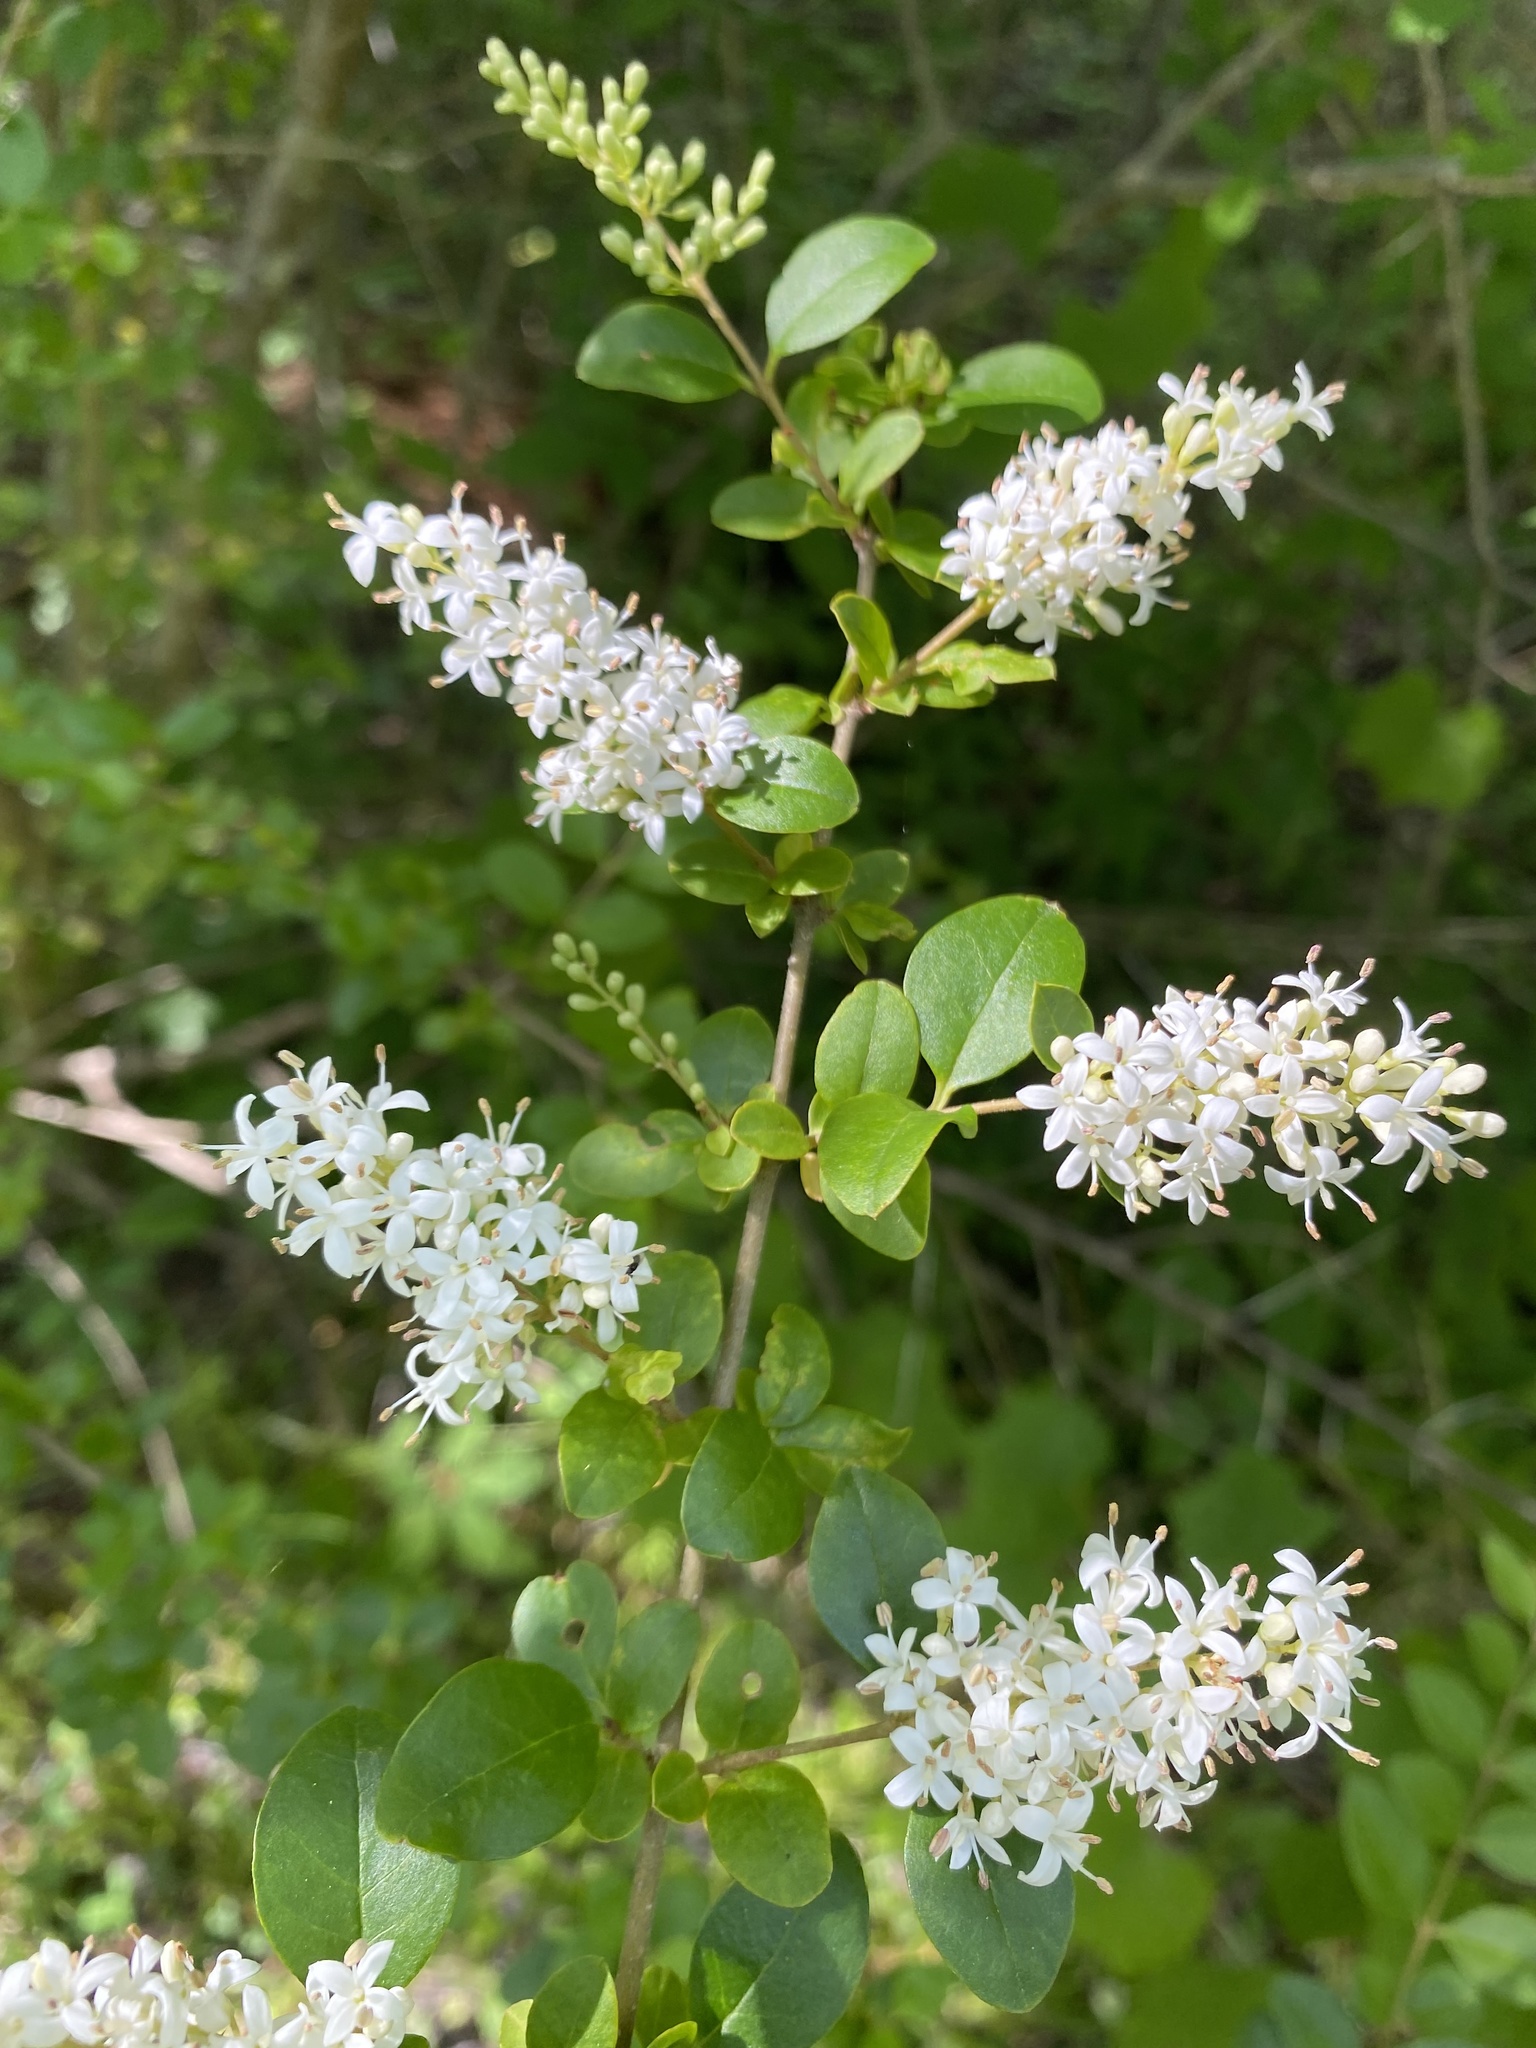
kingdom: Plantae
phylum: Tracheophyta
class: Magnoliopsida
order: Lamiales
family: Oleaceae
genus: Ligustrum
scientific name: Ligustrum sinense
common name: Chinese privet
